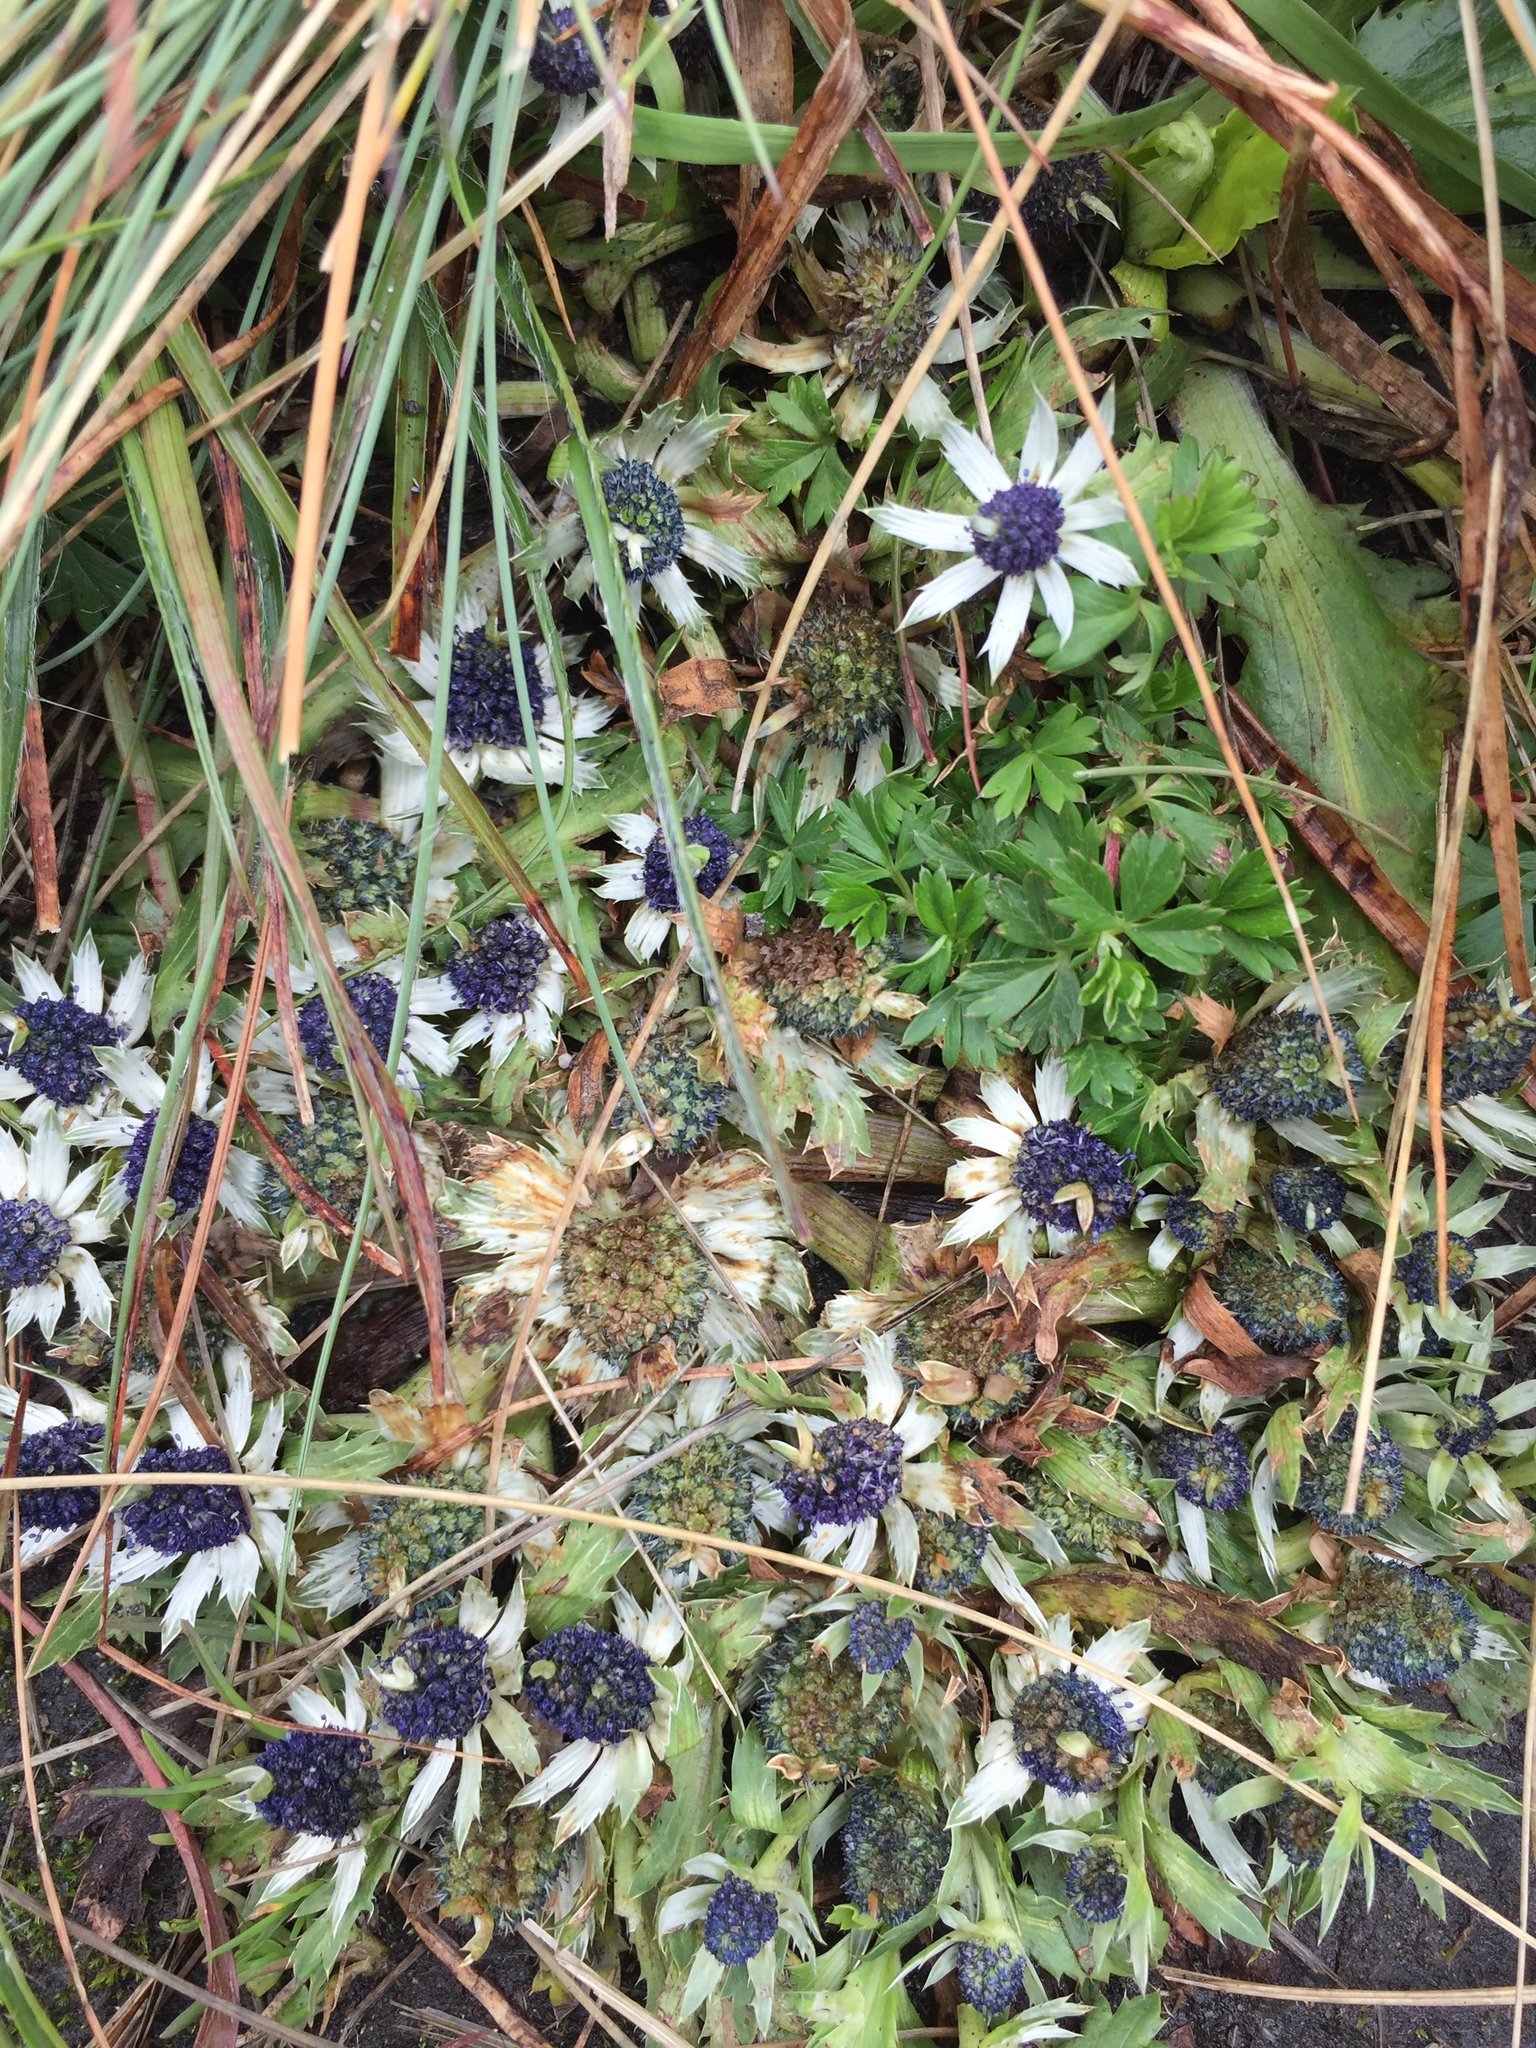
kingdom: Plantae
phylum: Tracheophyta
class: Magnoliopsida
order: Apiales
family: Apiaceae
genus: Eryngium
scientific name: Eryngium carlinae
